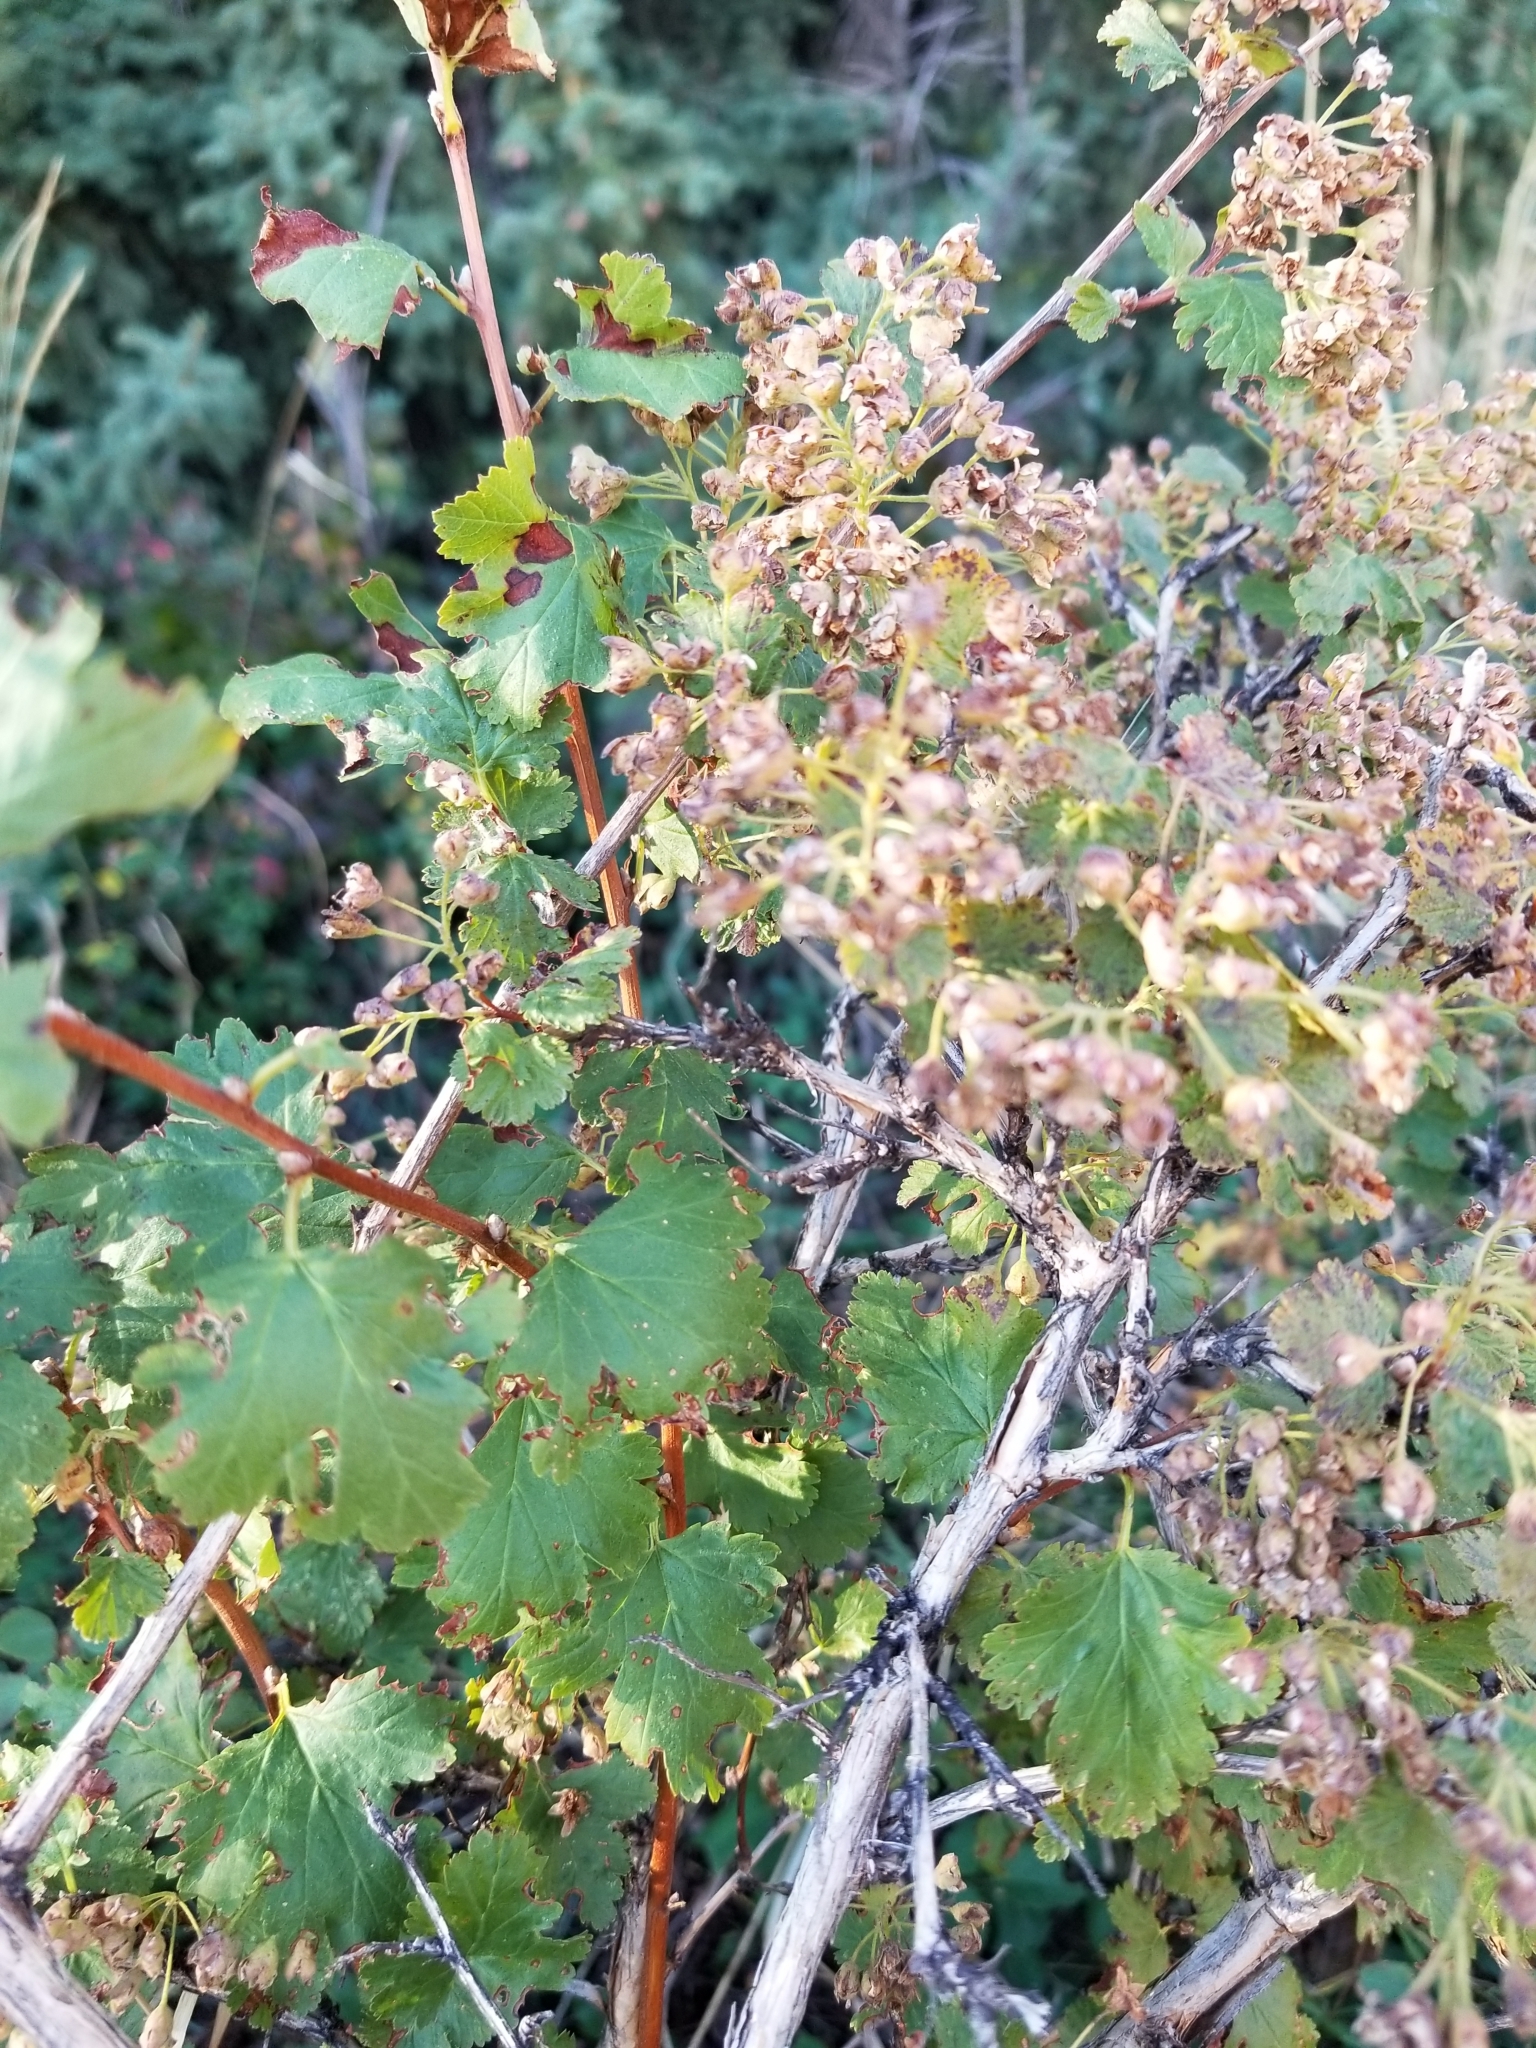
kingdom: Plantae
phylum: Tracheophyta
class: Magnoliopsida
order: Rosales
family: Rosaceae
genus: Physocarpus
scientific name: Physocarpus monogynus
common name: Mountain ninebark
